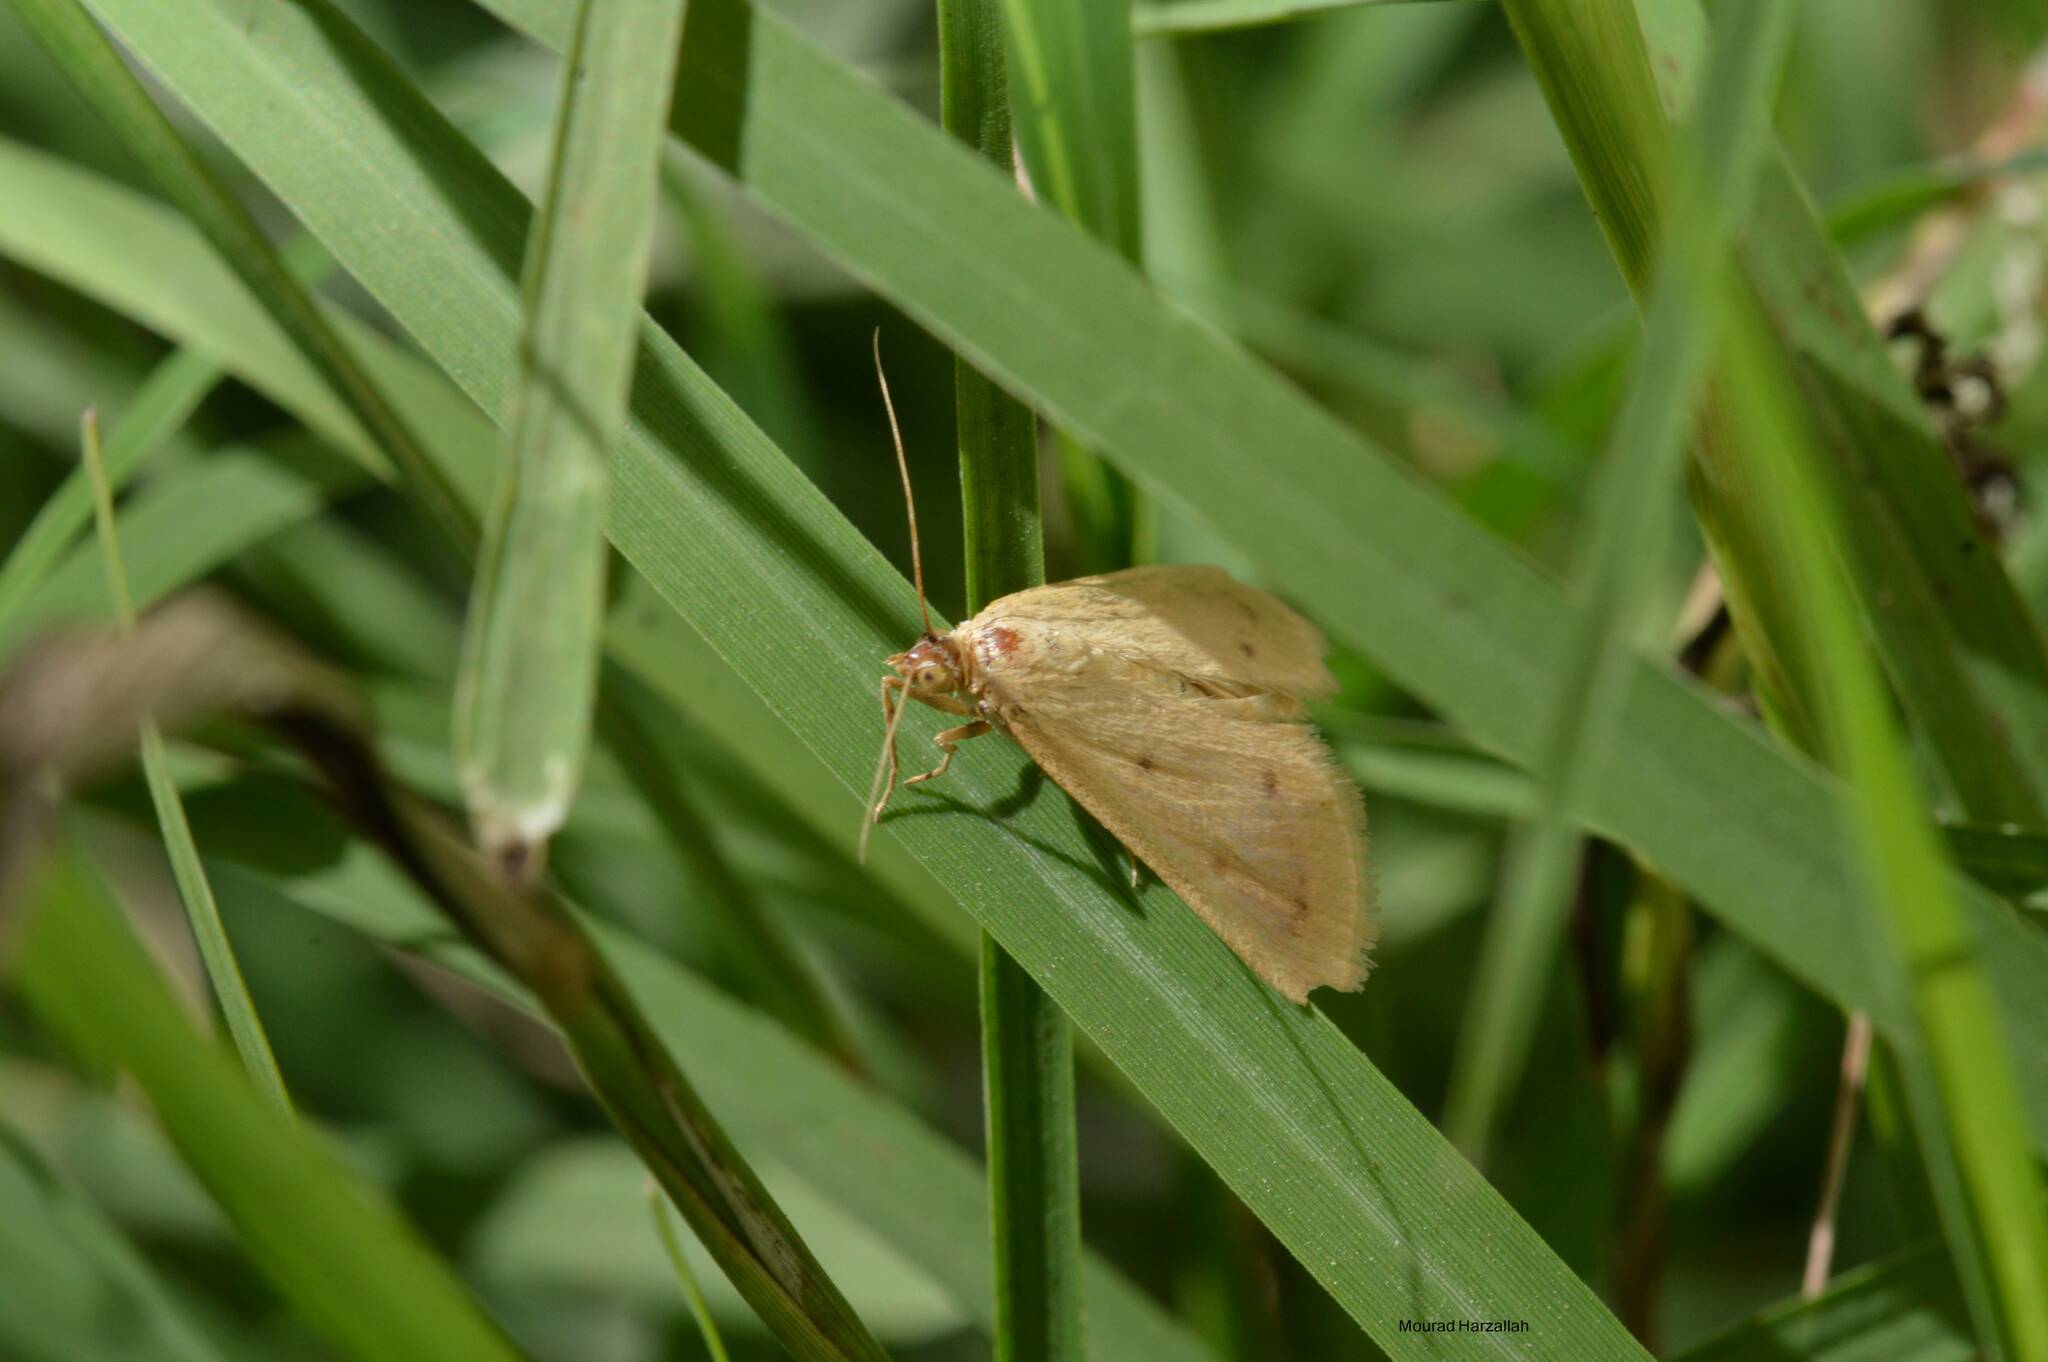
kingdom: Animalia
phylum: Arthropoda
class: Insecta
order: Lepidoptera
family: Crambidae
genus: Achyra
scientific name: Achyra nudalis
